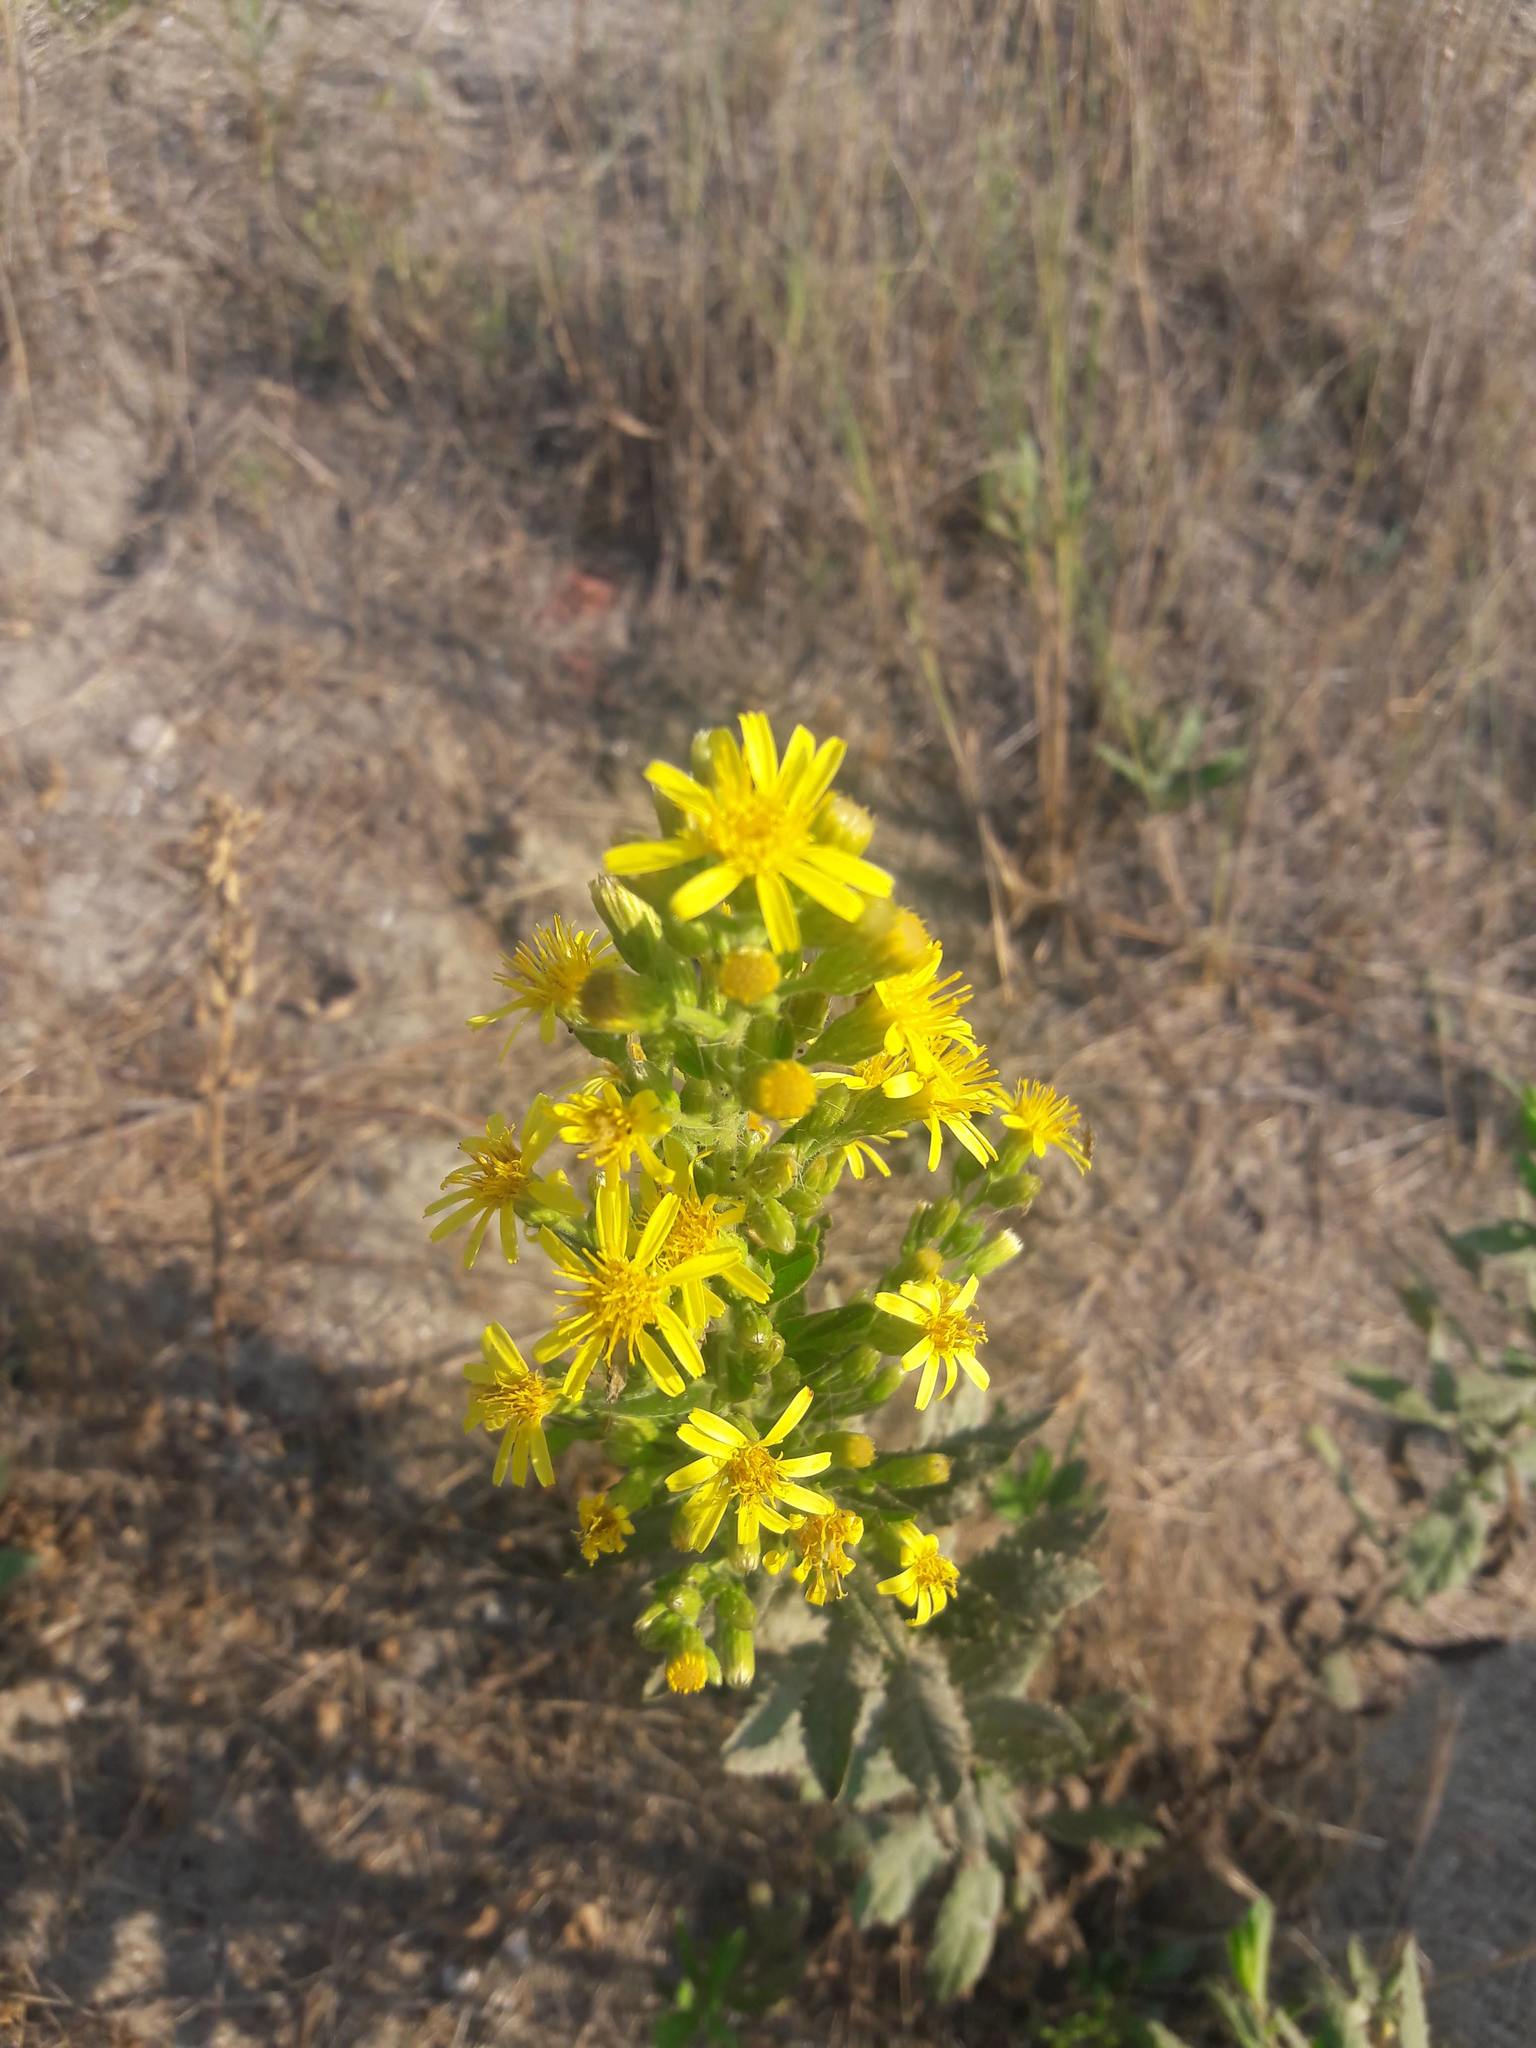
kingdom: Plantae
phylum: Tracheophyta
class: Magnoliopsida
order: Asterales
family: Asteraceae
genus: Dittrichia
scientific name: Dittrichia viscosa
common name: Woody fleabane
